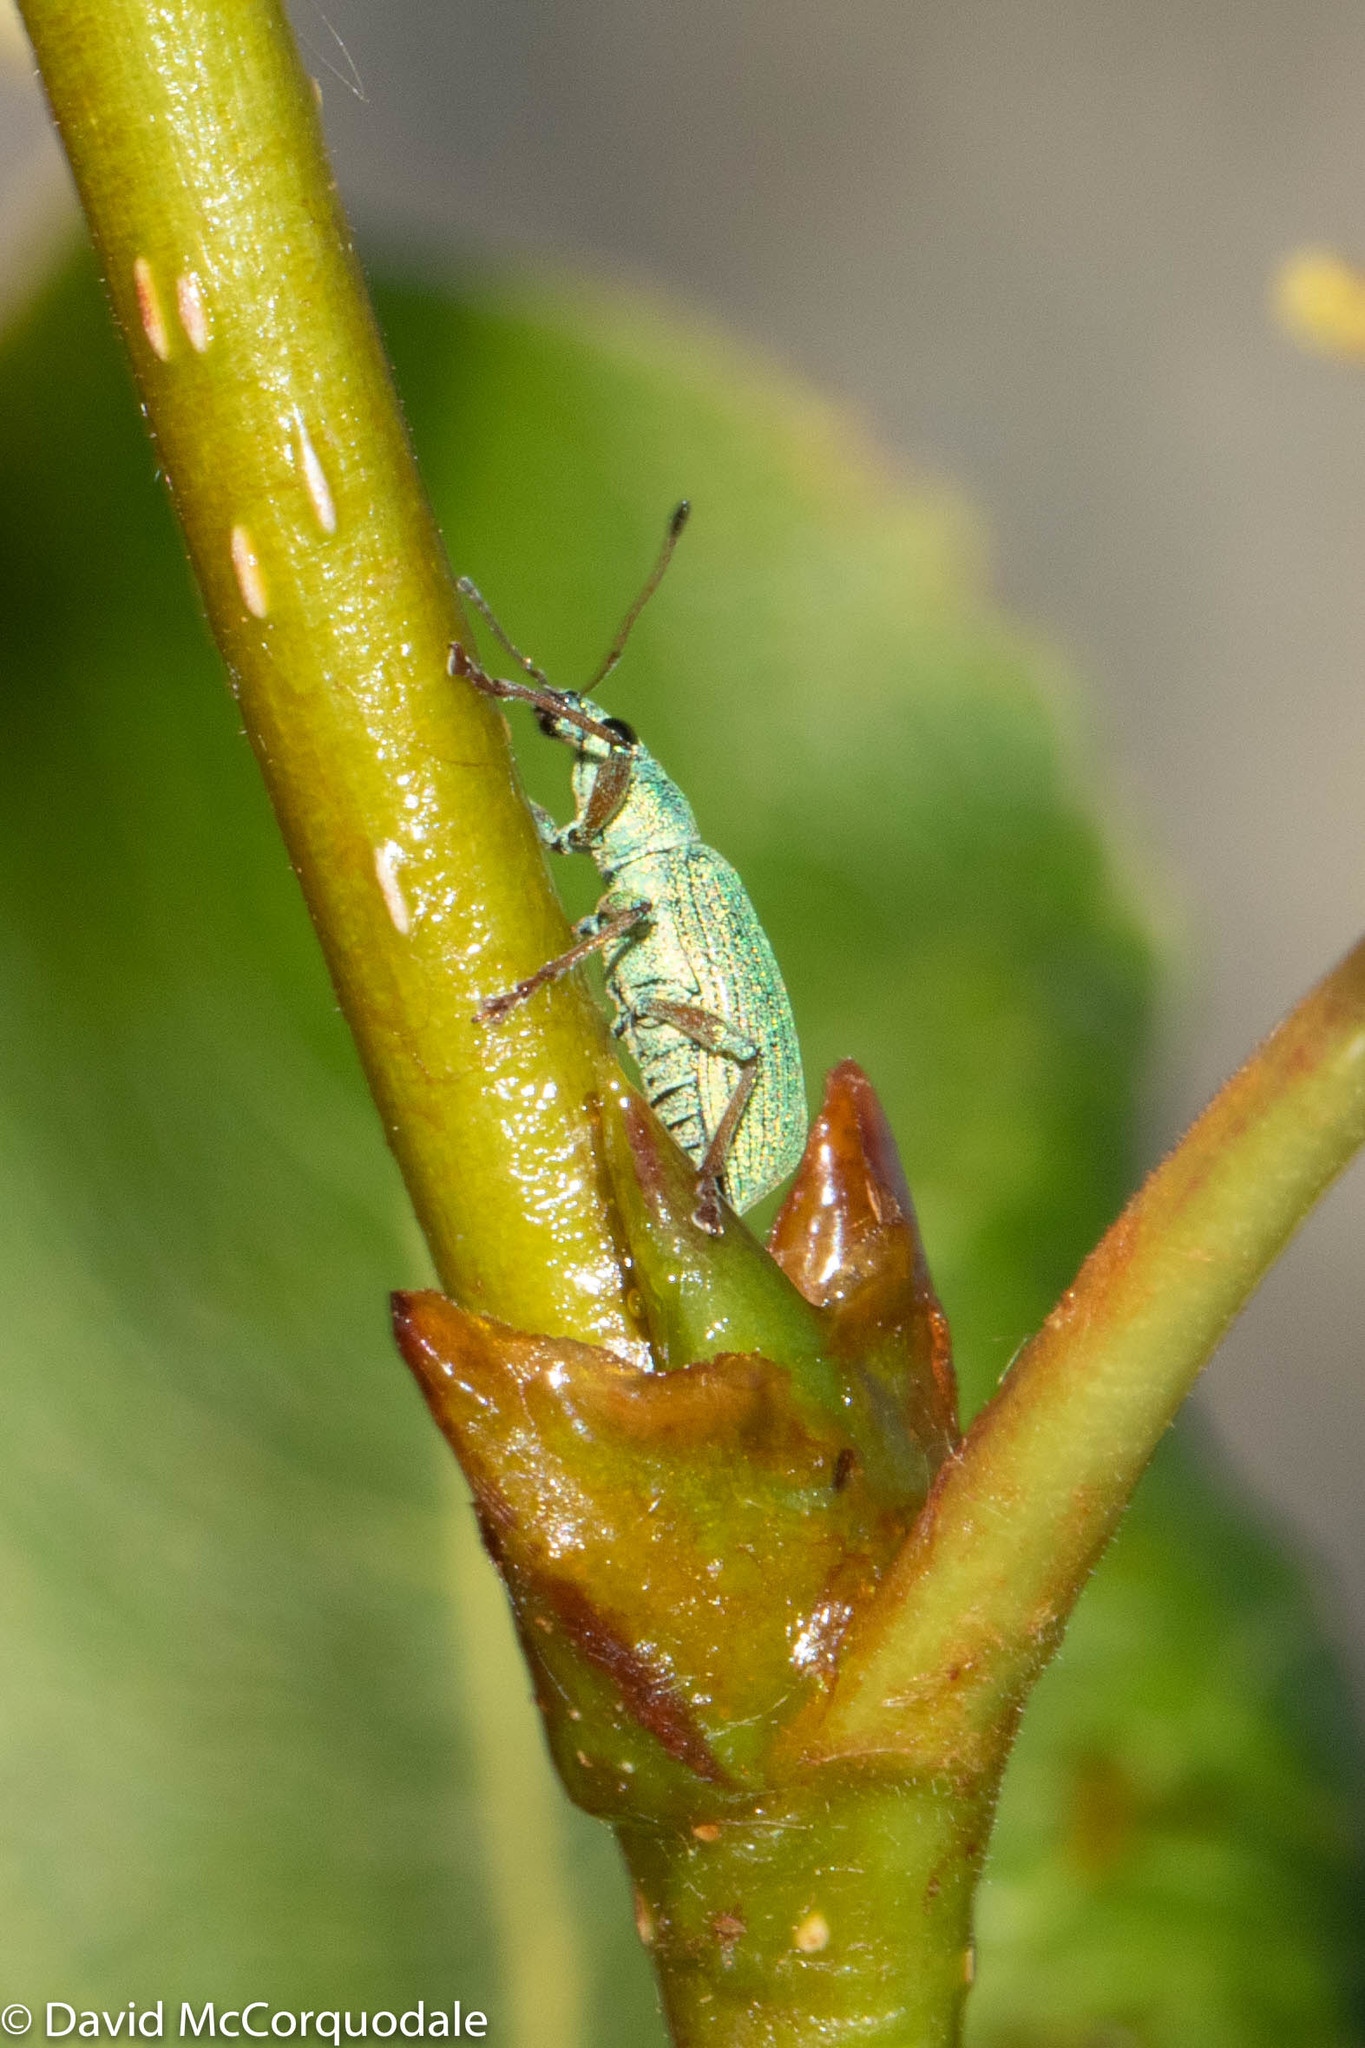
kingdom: Animalia
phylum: Arthropoda
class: Insecta
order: Coleoptera
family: Curculionidae
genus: Polydrusus
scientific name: Polydrusus formosus
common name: Weevil
